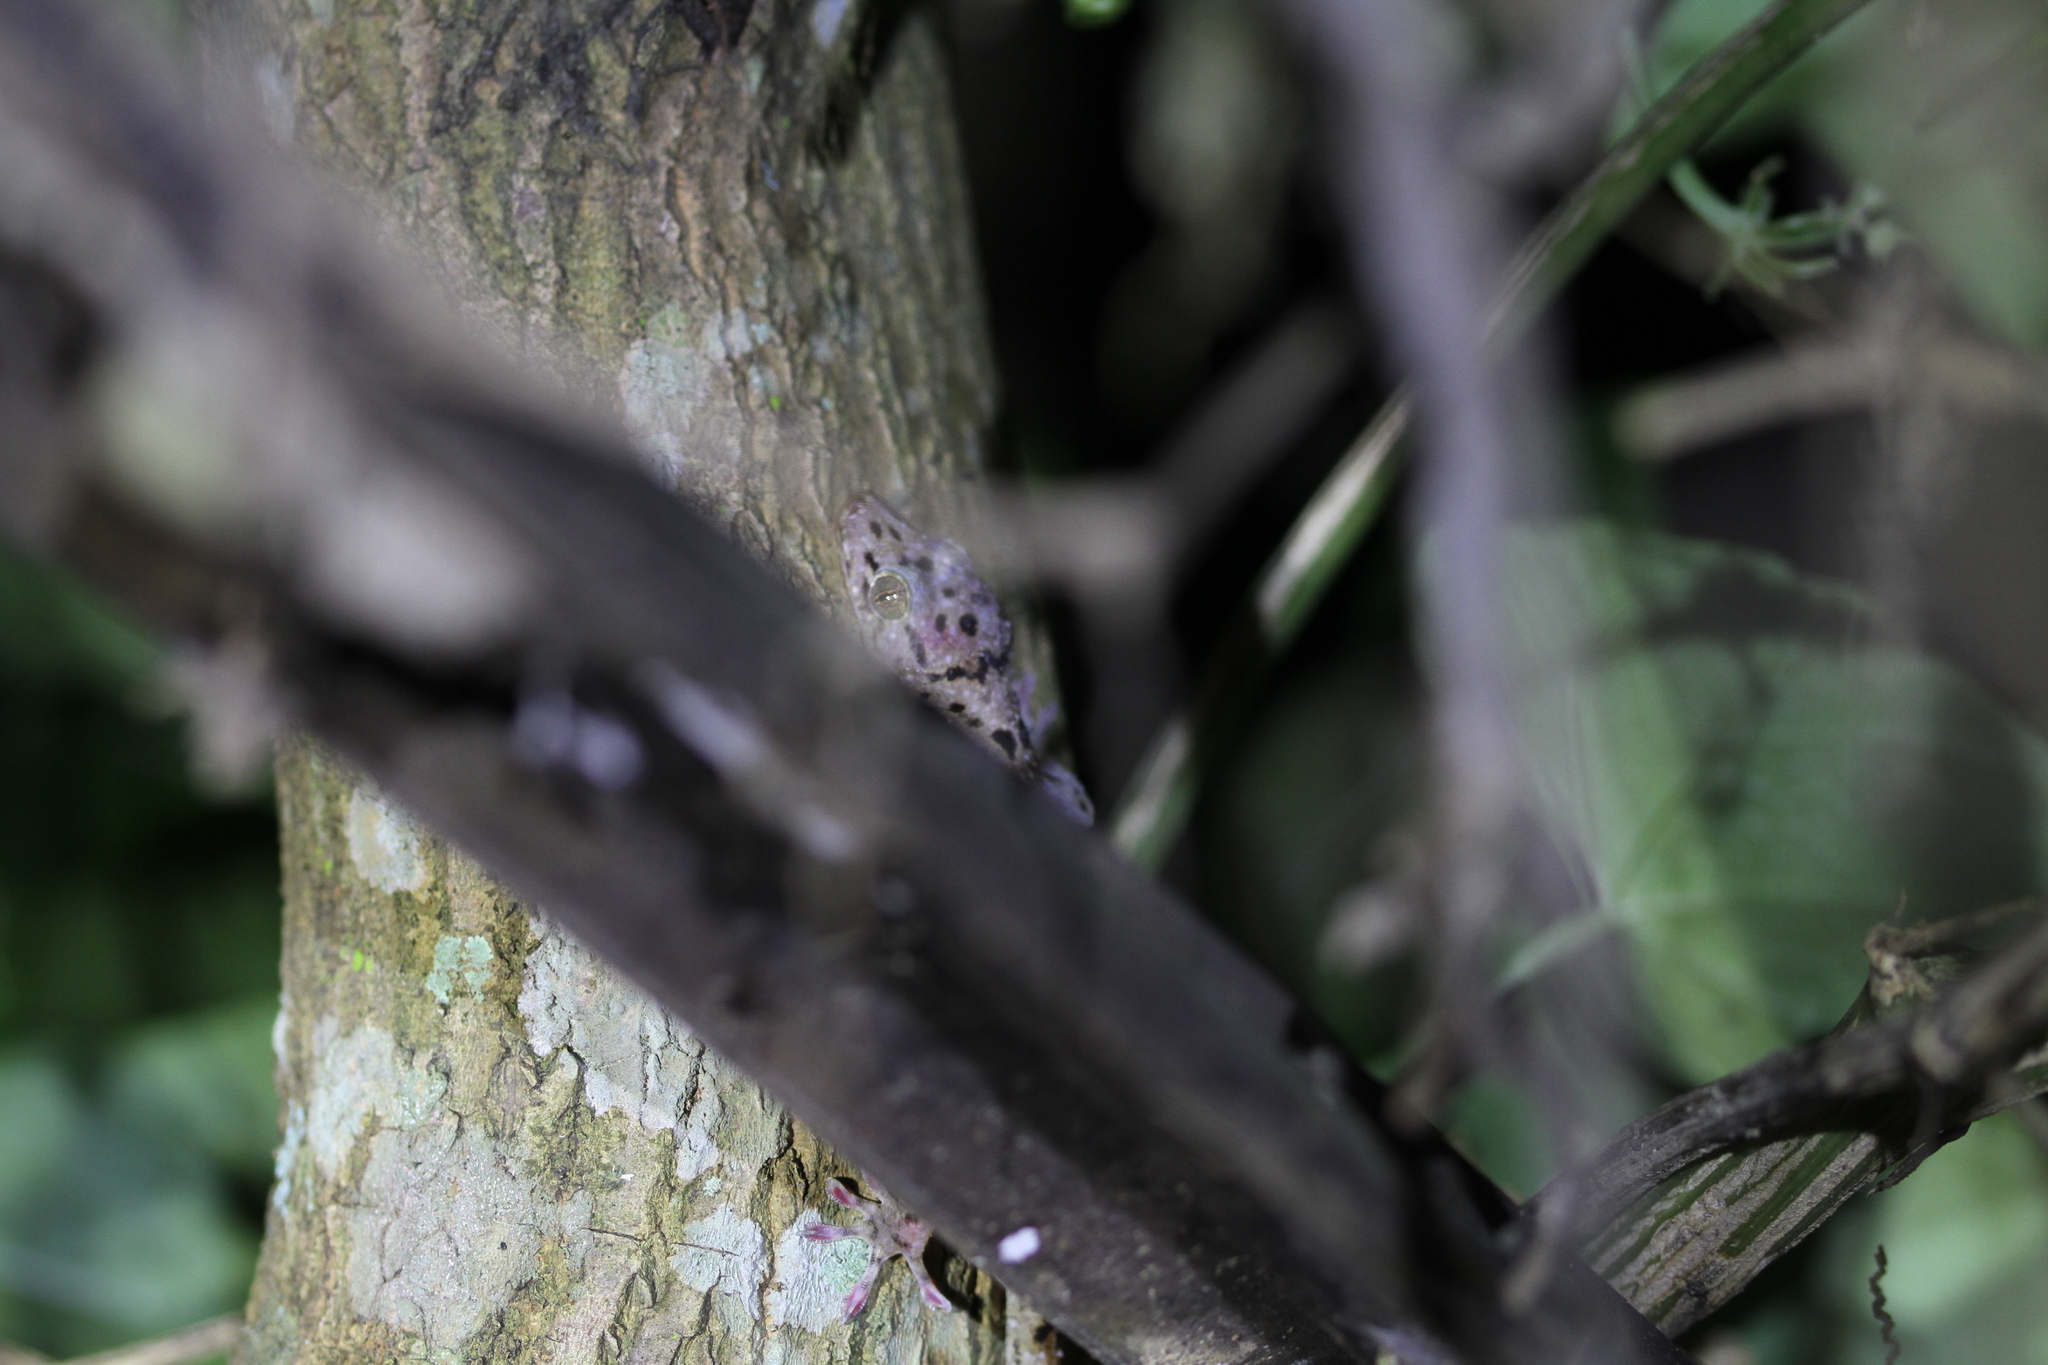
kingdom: Animalia
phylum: Chordata
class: Squamata
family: Gekkonidae
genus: Gekko
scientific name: Gekko monarchus
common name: Spotted house gecko
